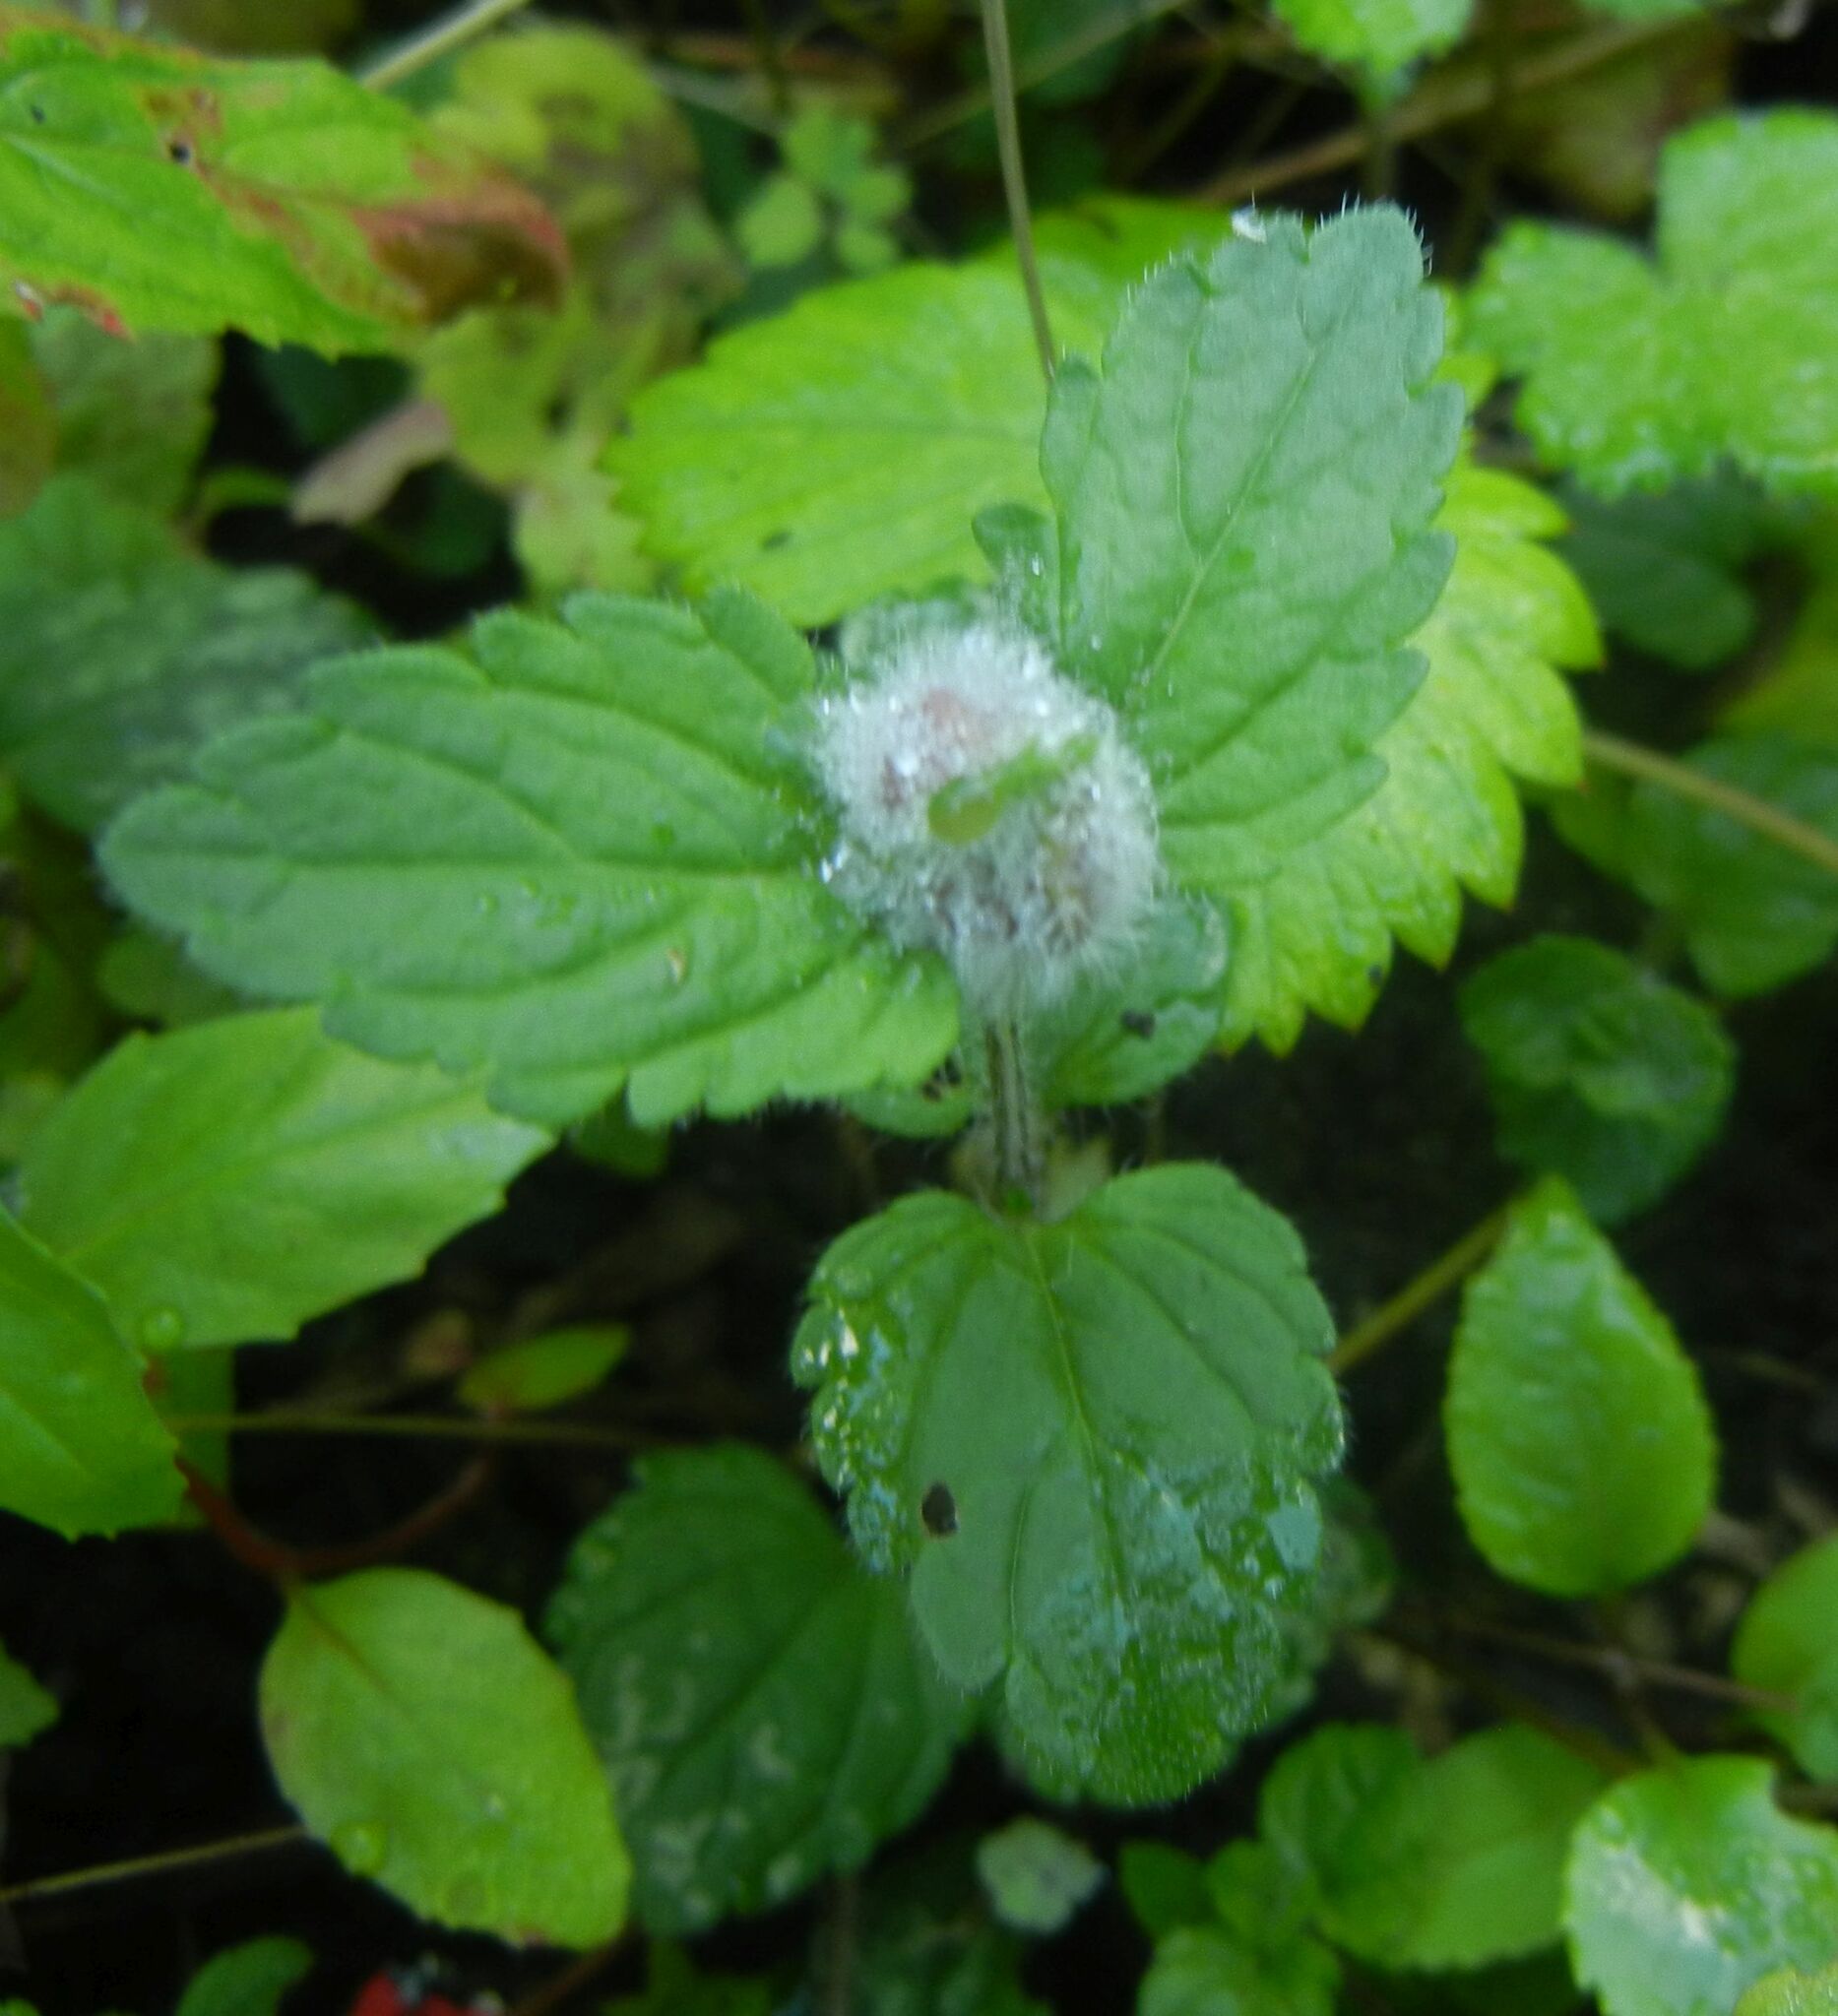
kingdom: Animalia
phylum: Arthropoda
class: Insecta
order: Diptera
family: Cecidomyiidae
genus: Jaapiella
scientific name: Jaapiella veronicae
